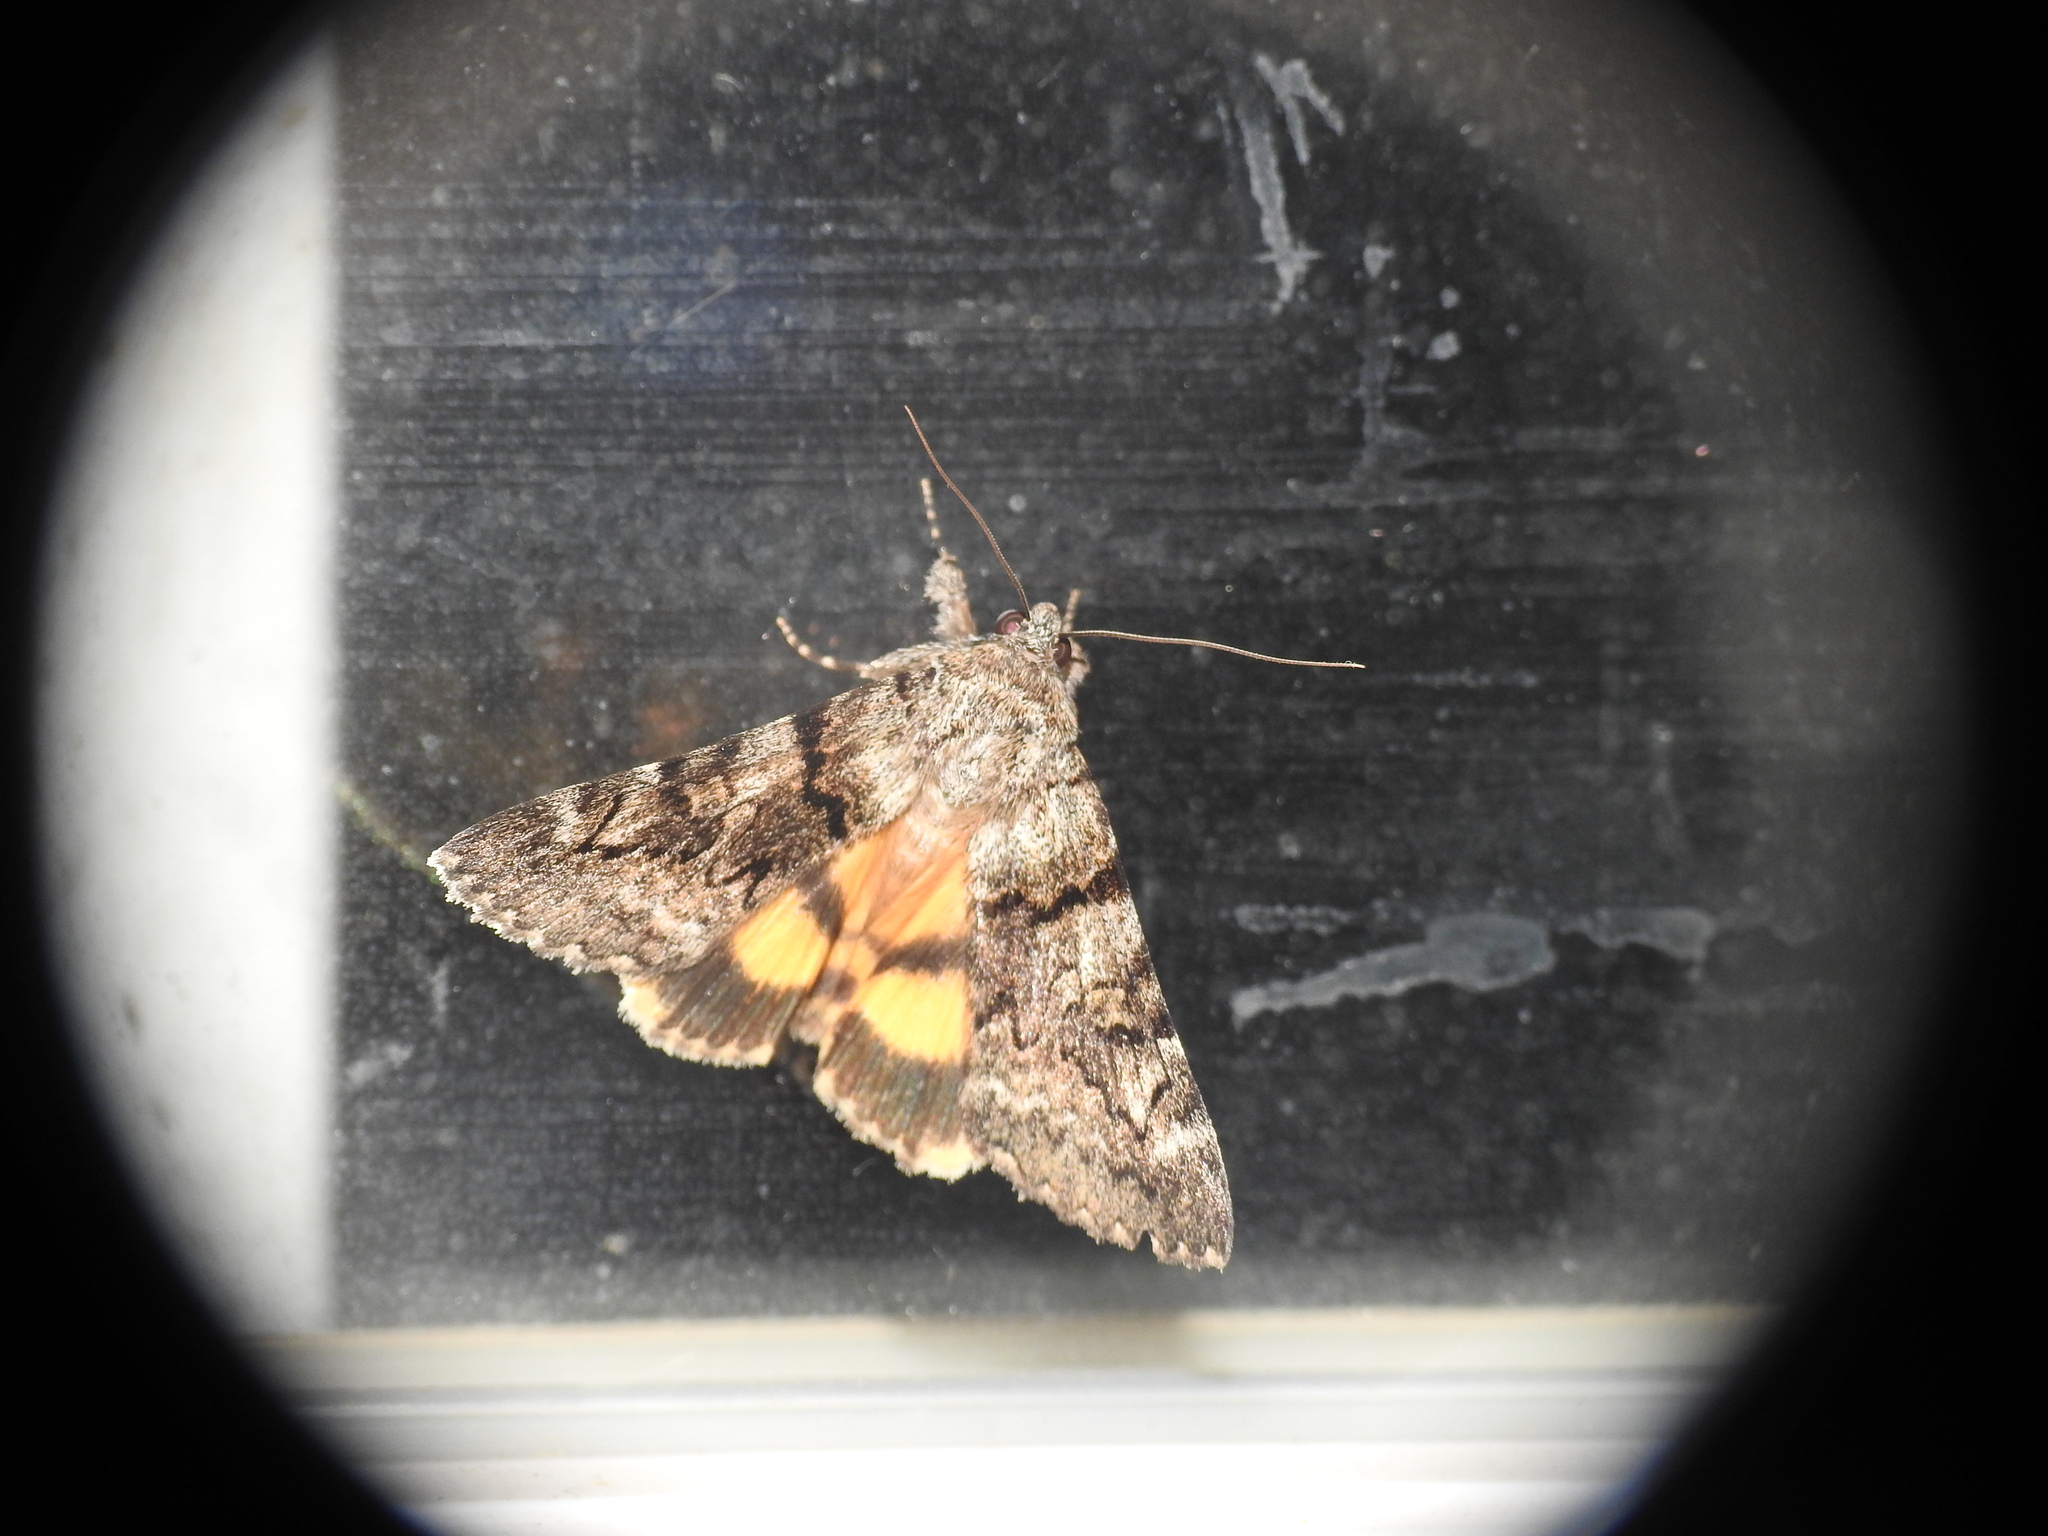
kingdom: Animalia
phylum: Arthropoda
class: Insecta
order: Lepidoptera
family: Erebidae
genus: Catocala
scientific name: Catocala nymphagoga
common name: Oak yellow underwing
